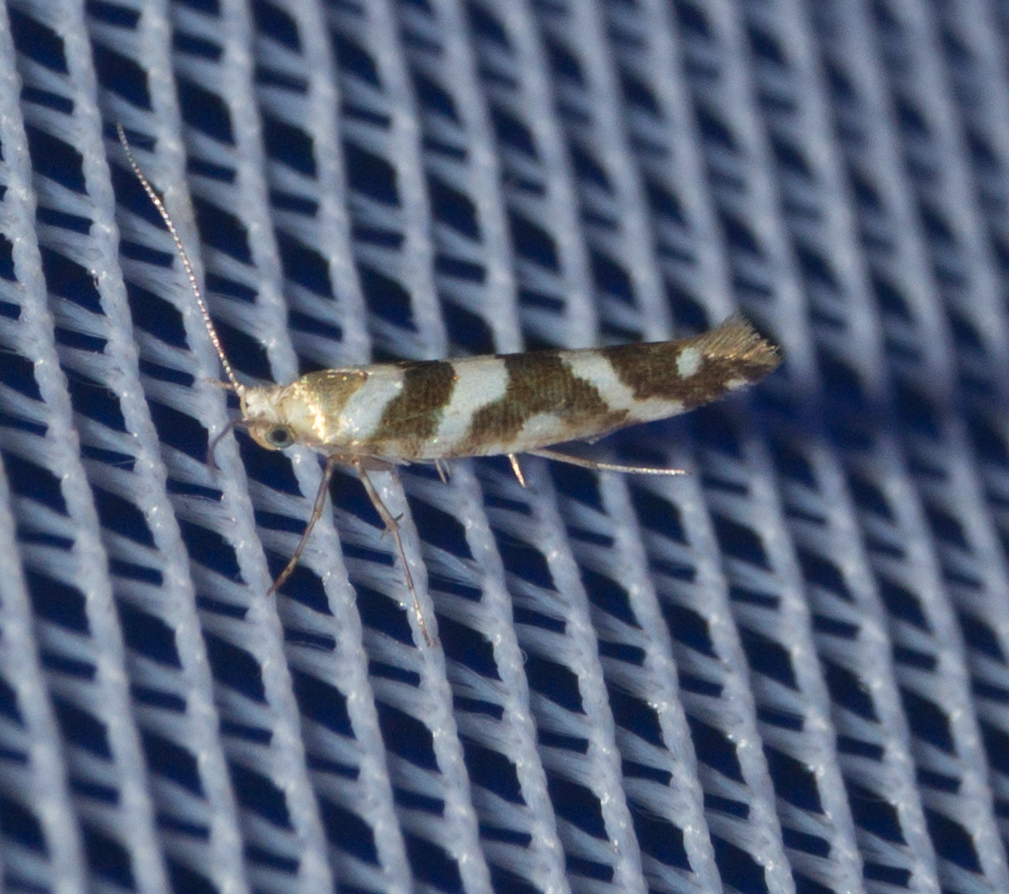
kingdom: Animalia
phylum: Arthropoda
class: Insecta
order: Lepidoptera
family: Argyresthiidae
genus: Argyresthia
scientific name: Argyresthia goedartella
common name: Golden argent
